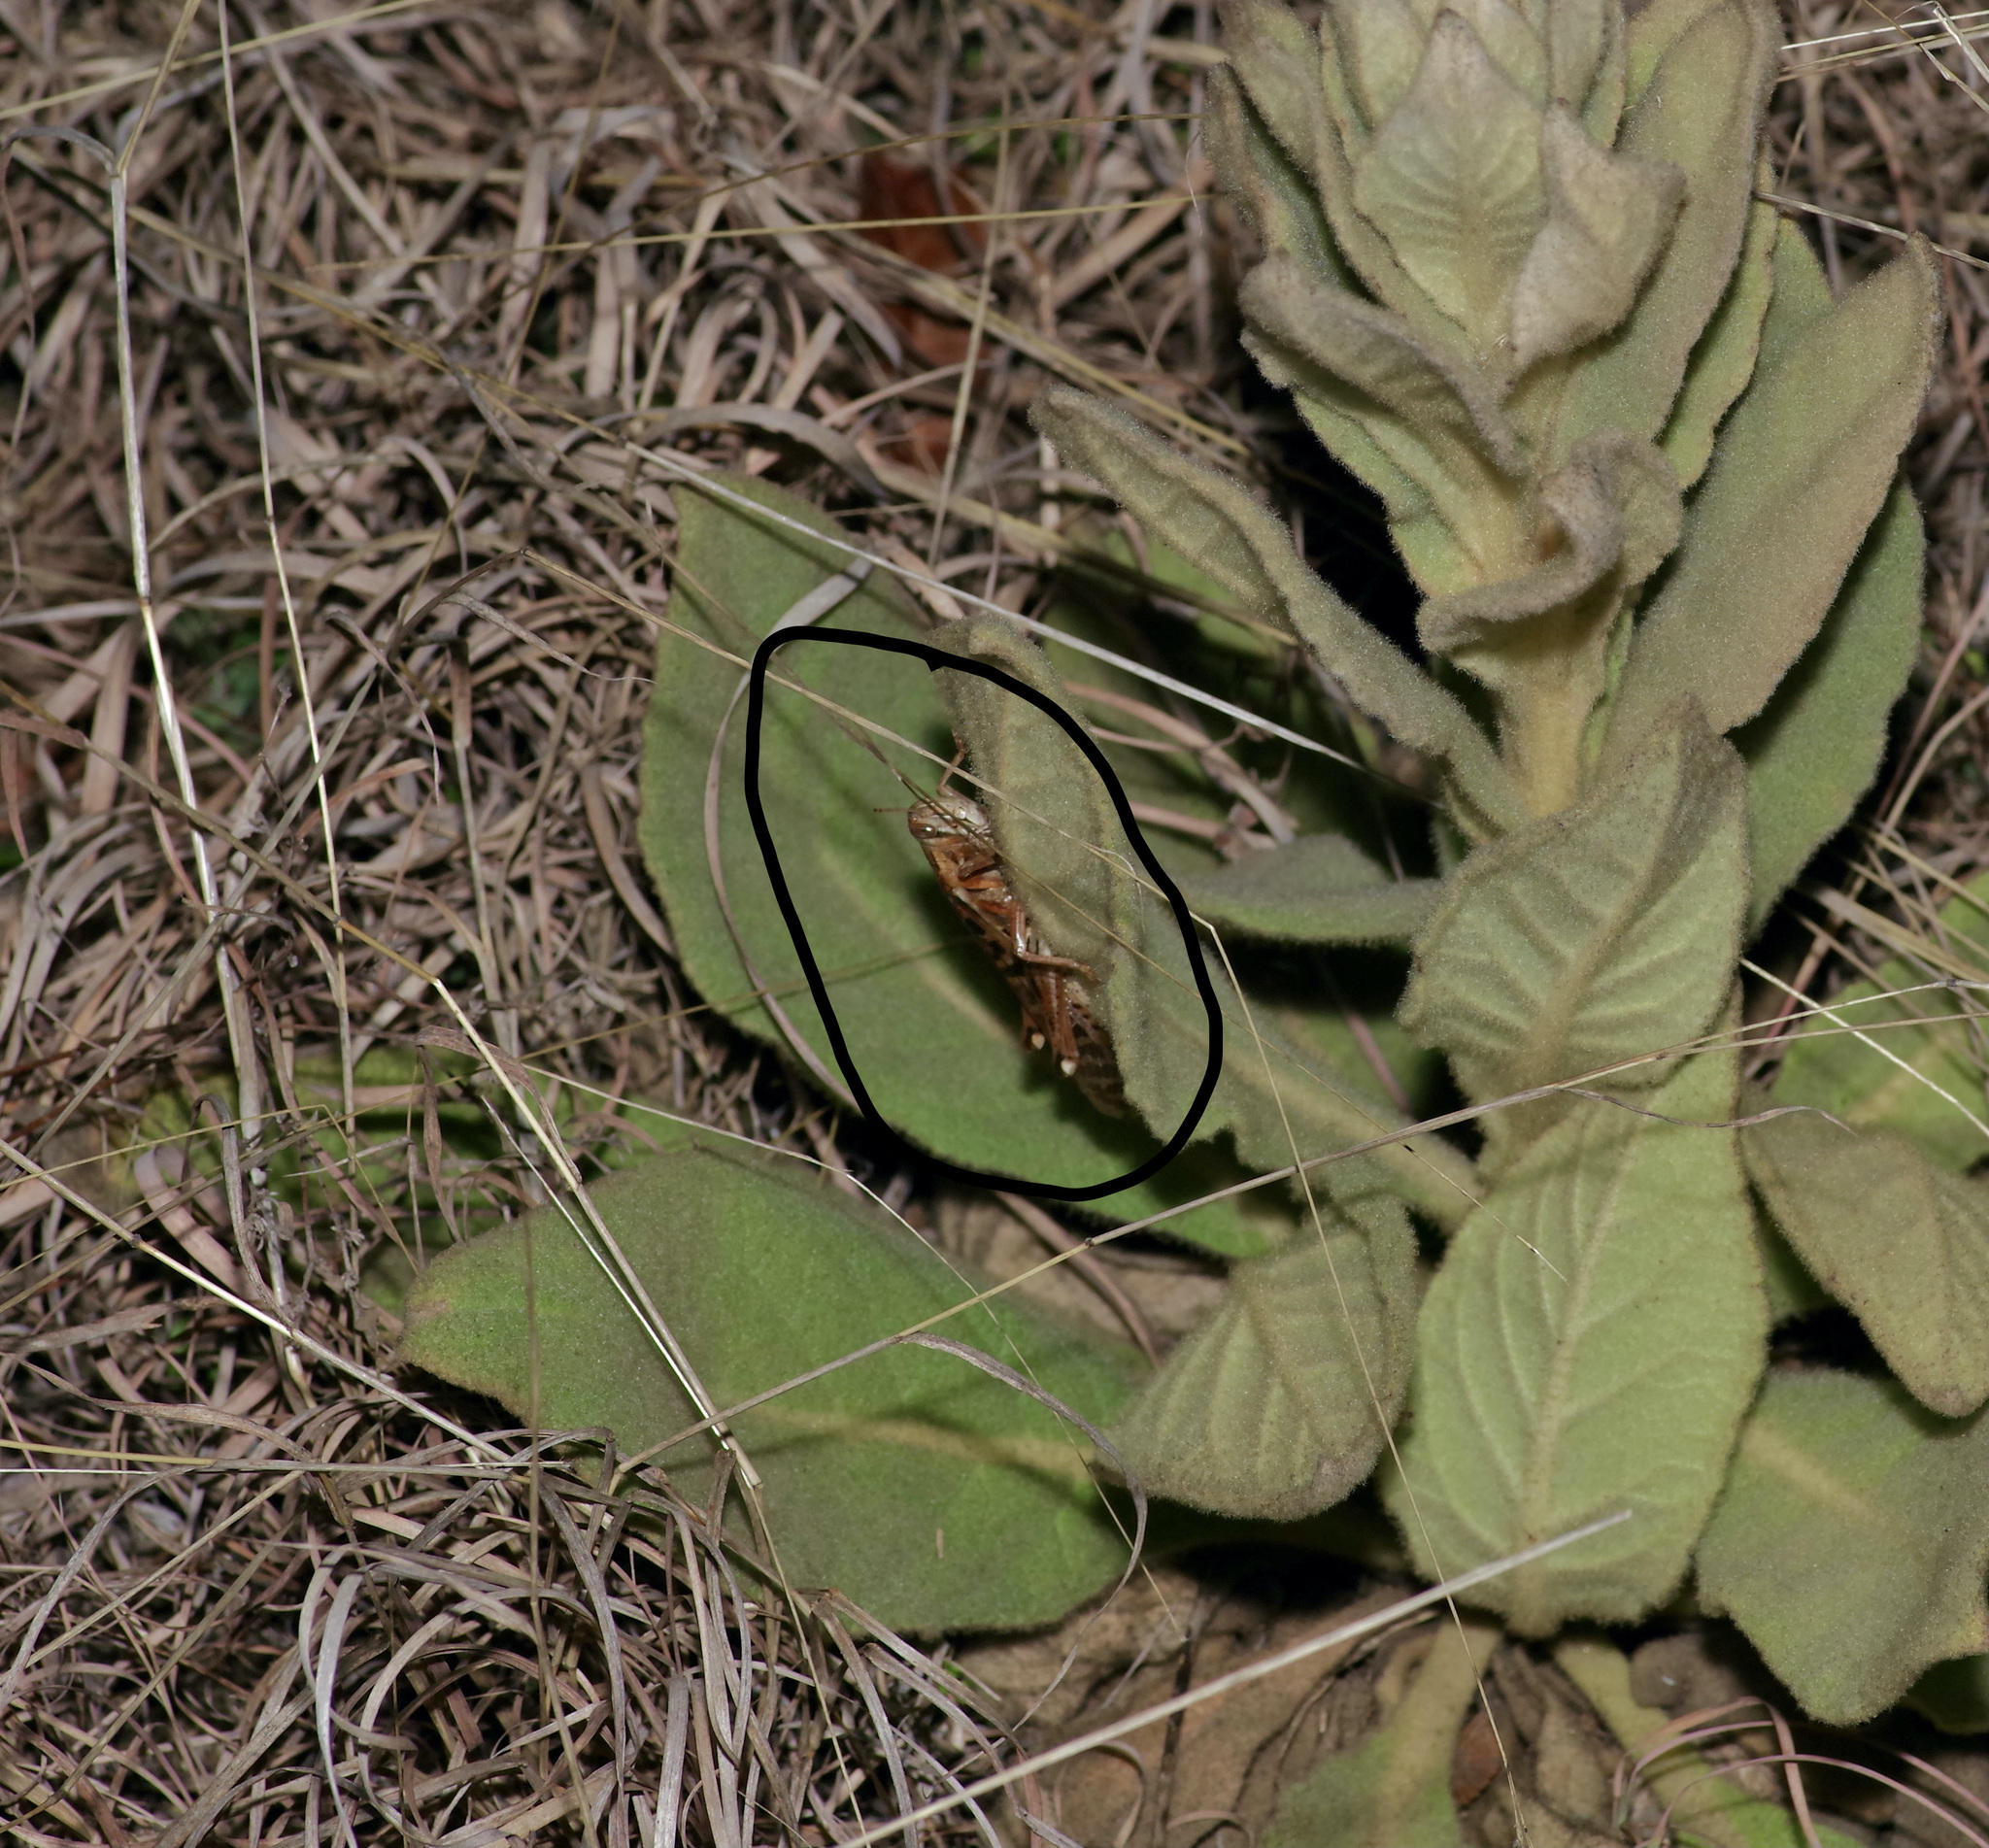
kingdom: Animalia
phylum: Arthropoda
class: Insecta
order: Orthoptera
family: Acrididae
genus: Schistocerca
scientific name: Schistocerca americana
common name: American bird locust
